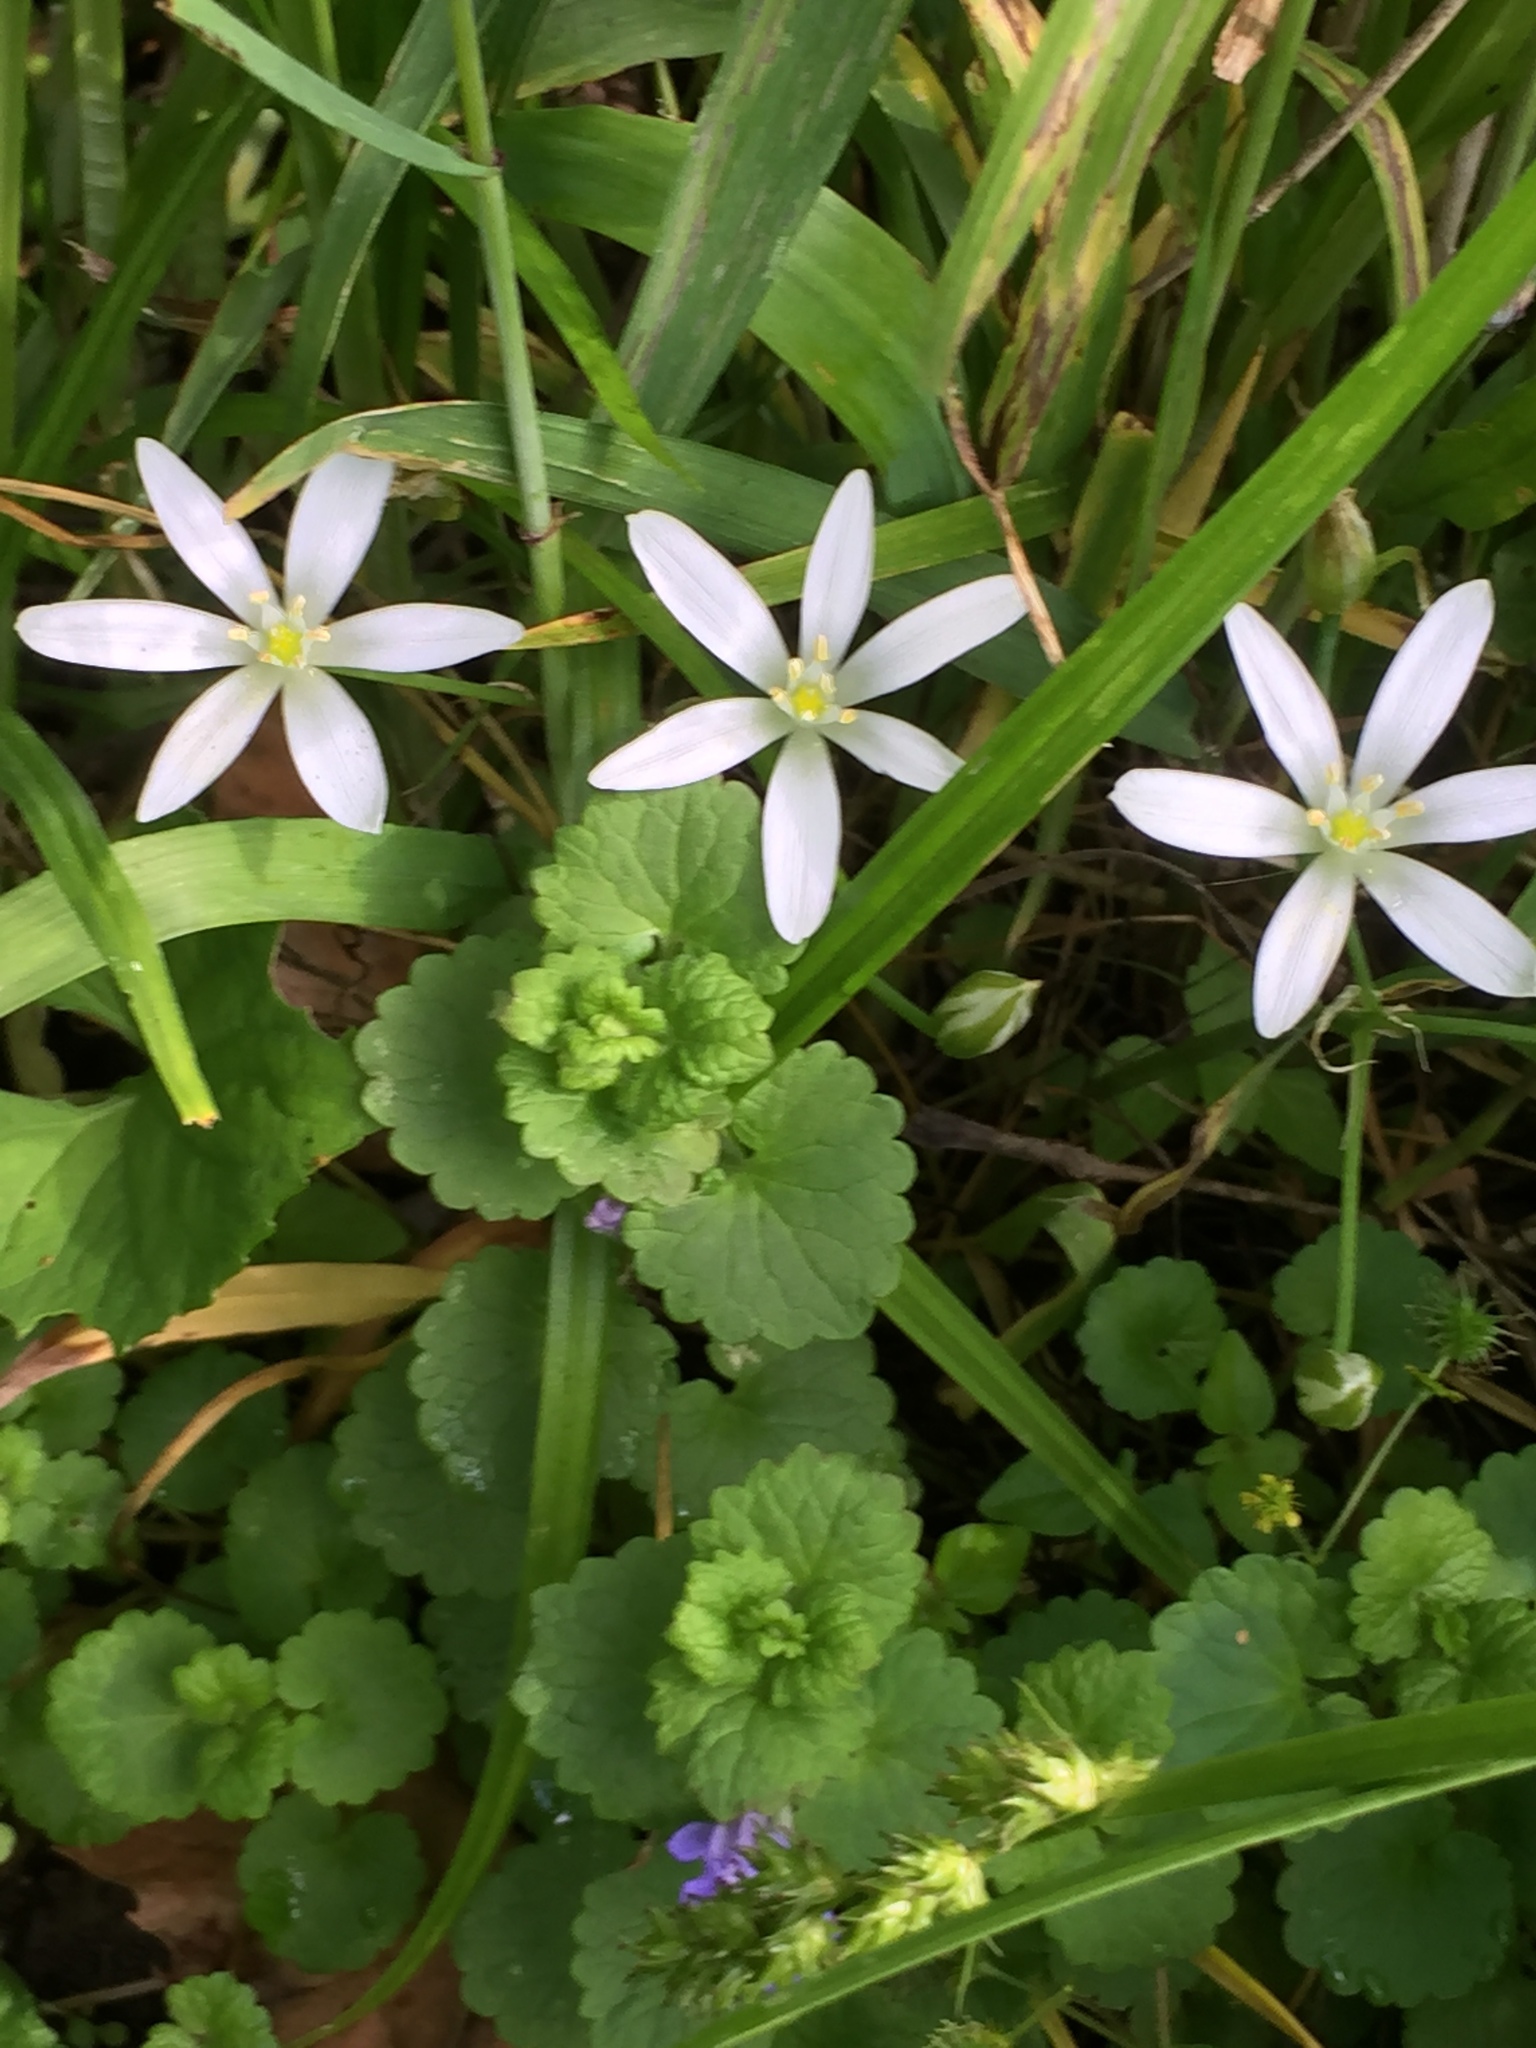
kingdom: Plantae
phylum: Tracheophyta
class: Liliopsida
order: Asparagales
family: Asparagaceae
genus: Ornithogalum
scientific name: Ornithogalum umbellatum
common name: Garden star-of-bethlehem
